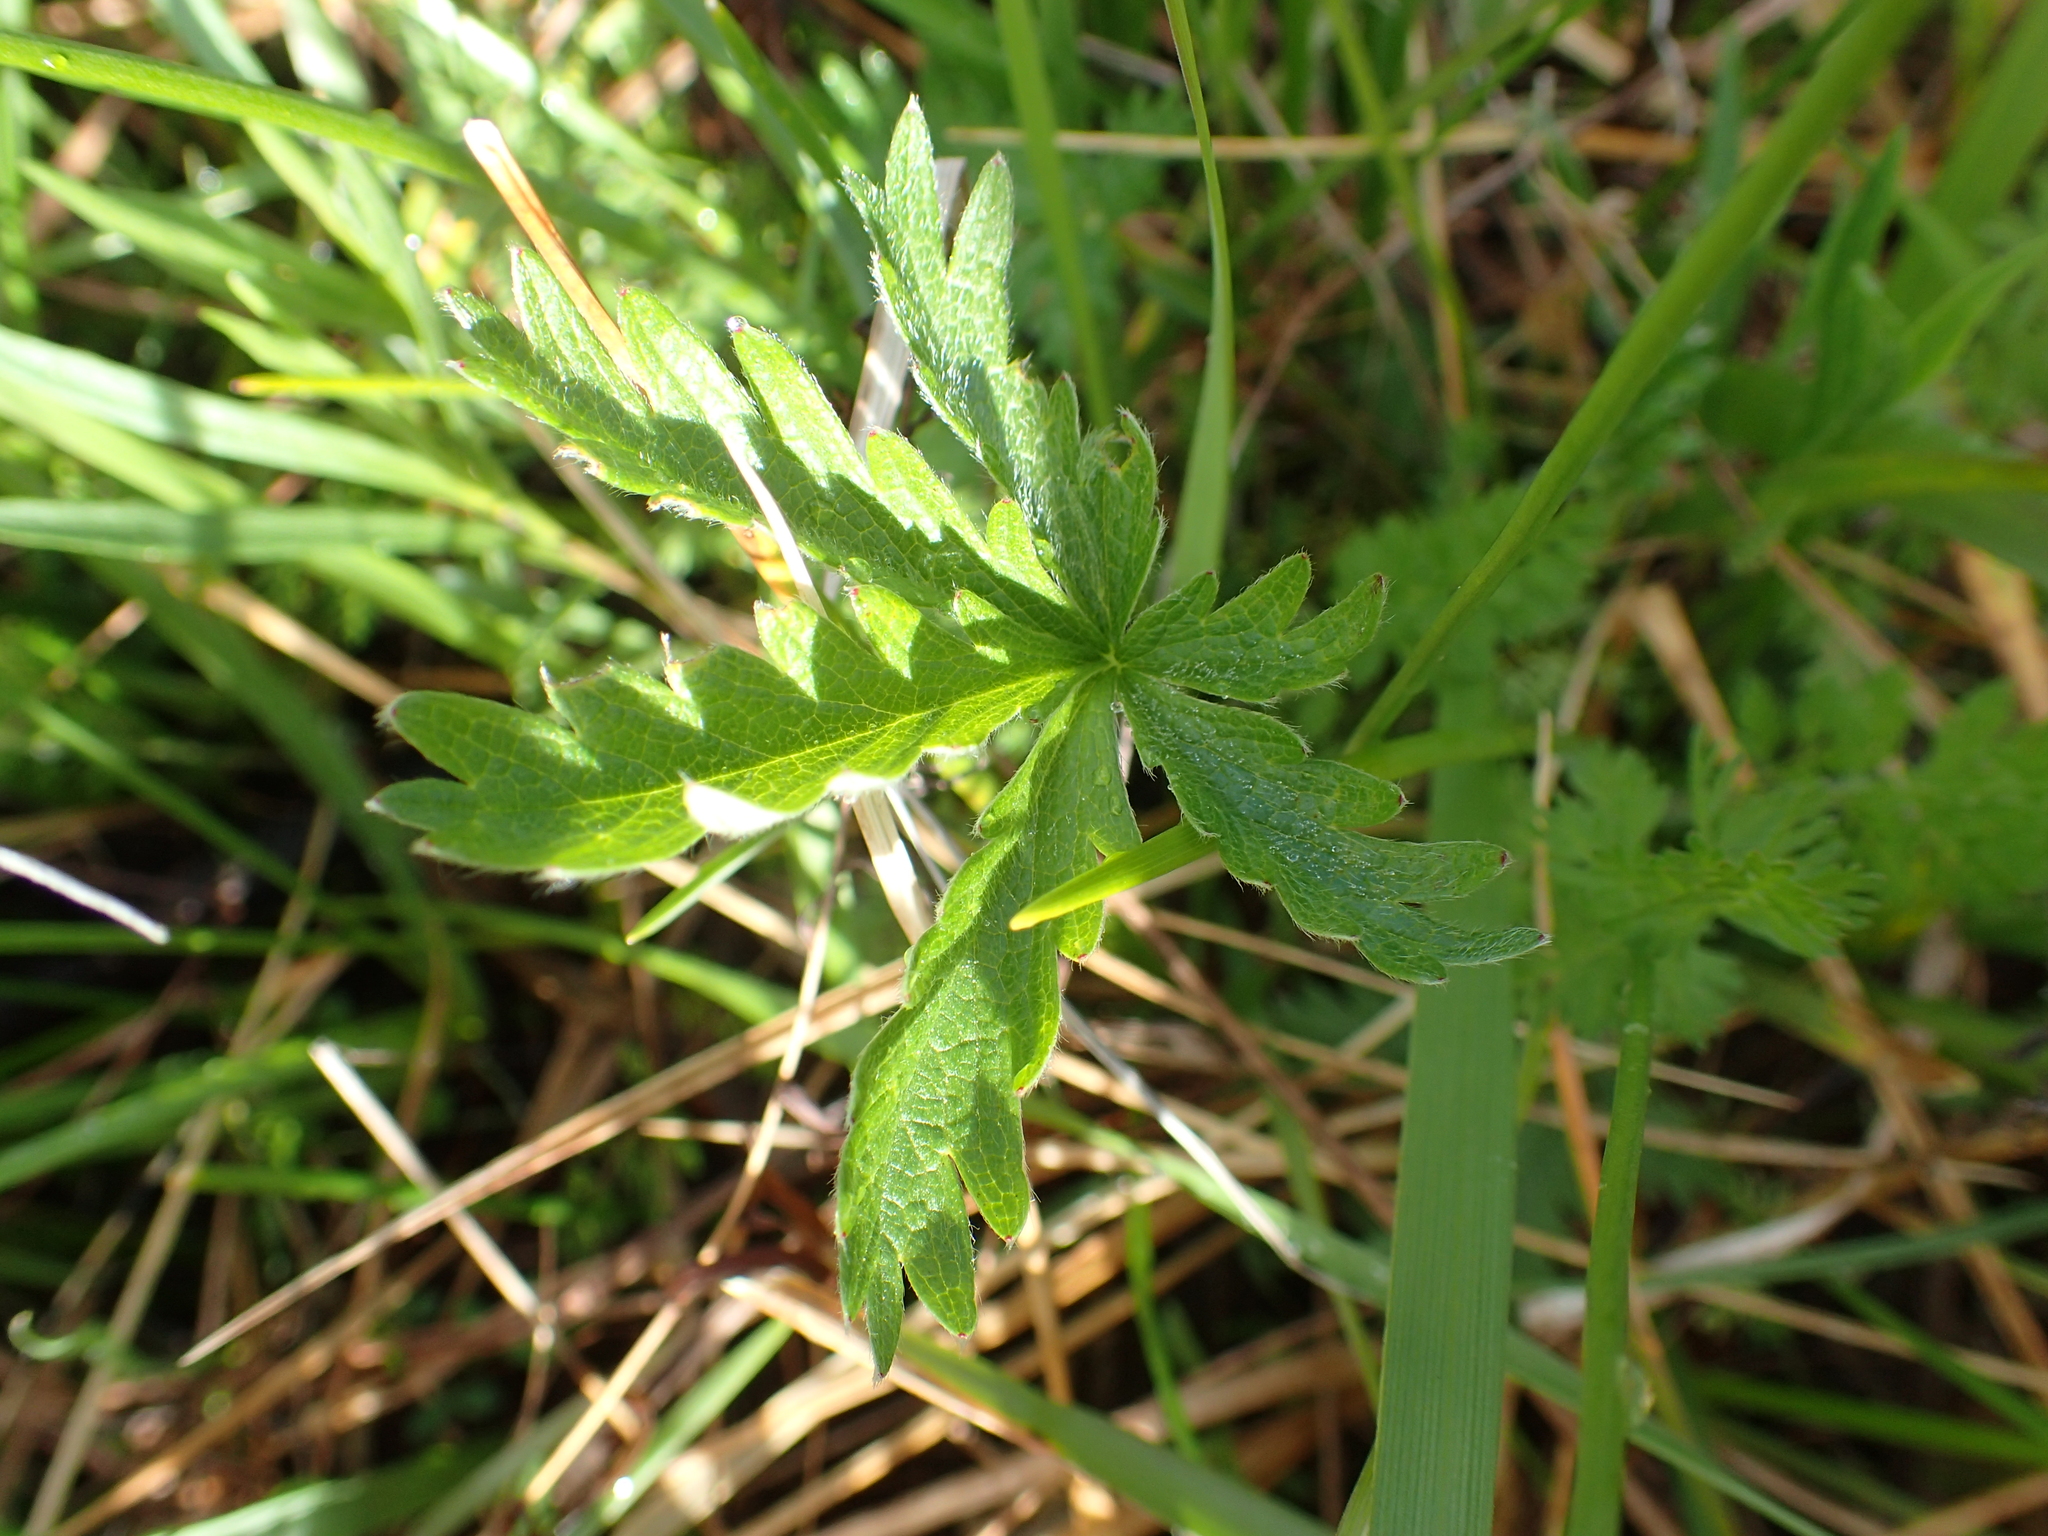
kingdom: Plantae
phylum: Tracheophyta
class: Magnoliopsida
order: Rosales
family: Rosaceae
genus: Potentilla
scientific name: Potentilla gracilis
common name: Graceful cinquefoil
